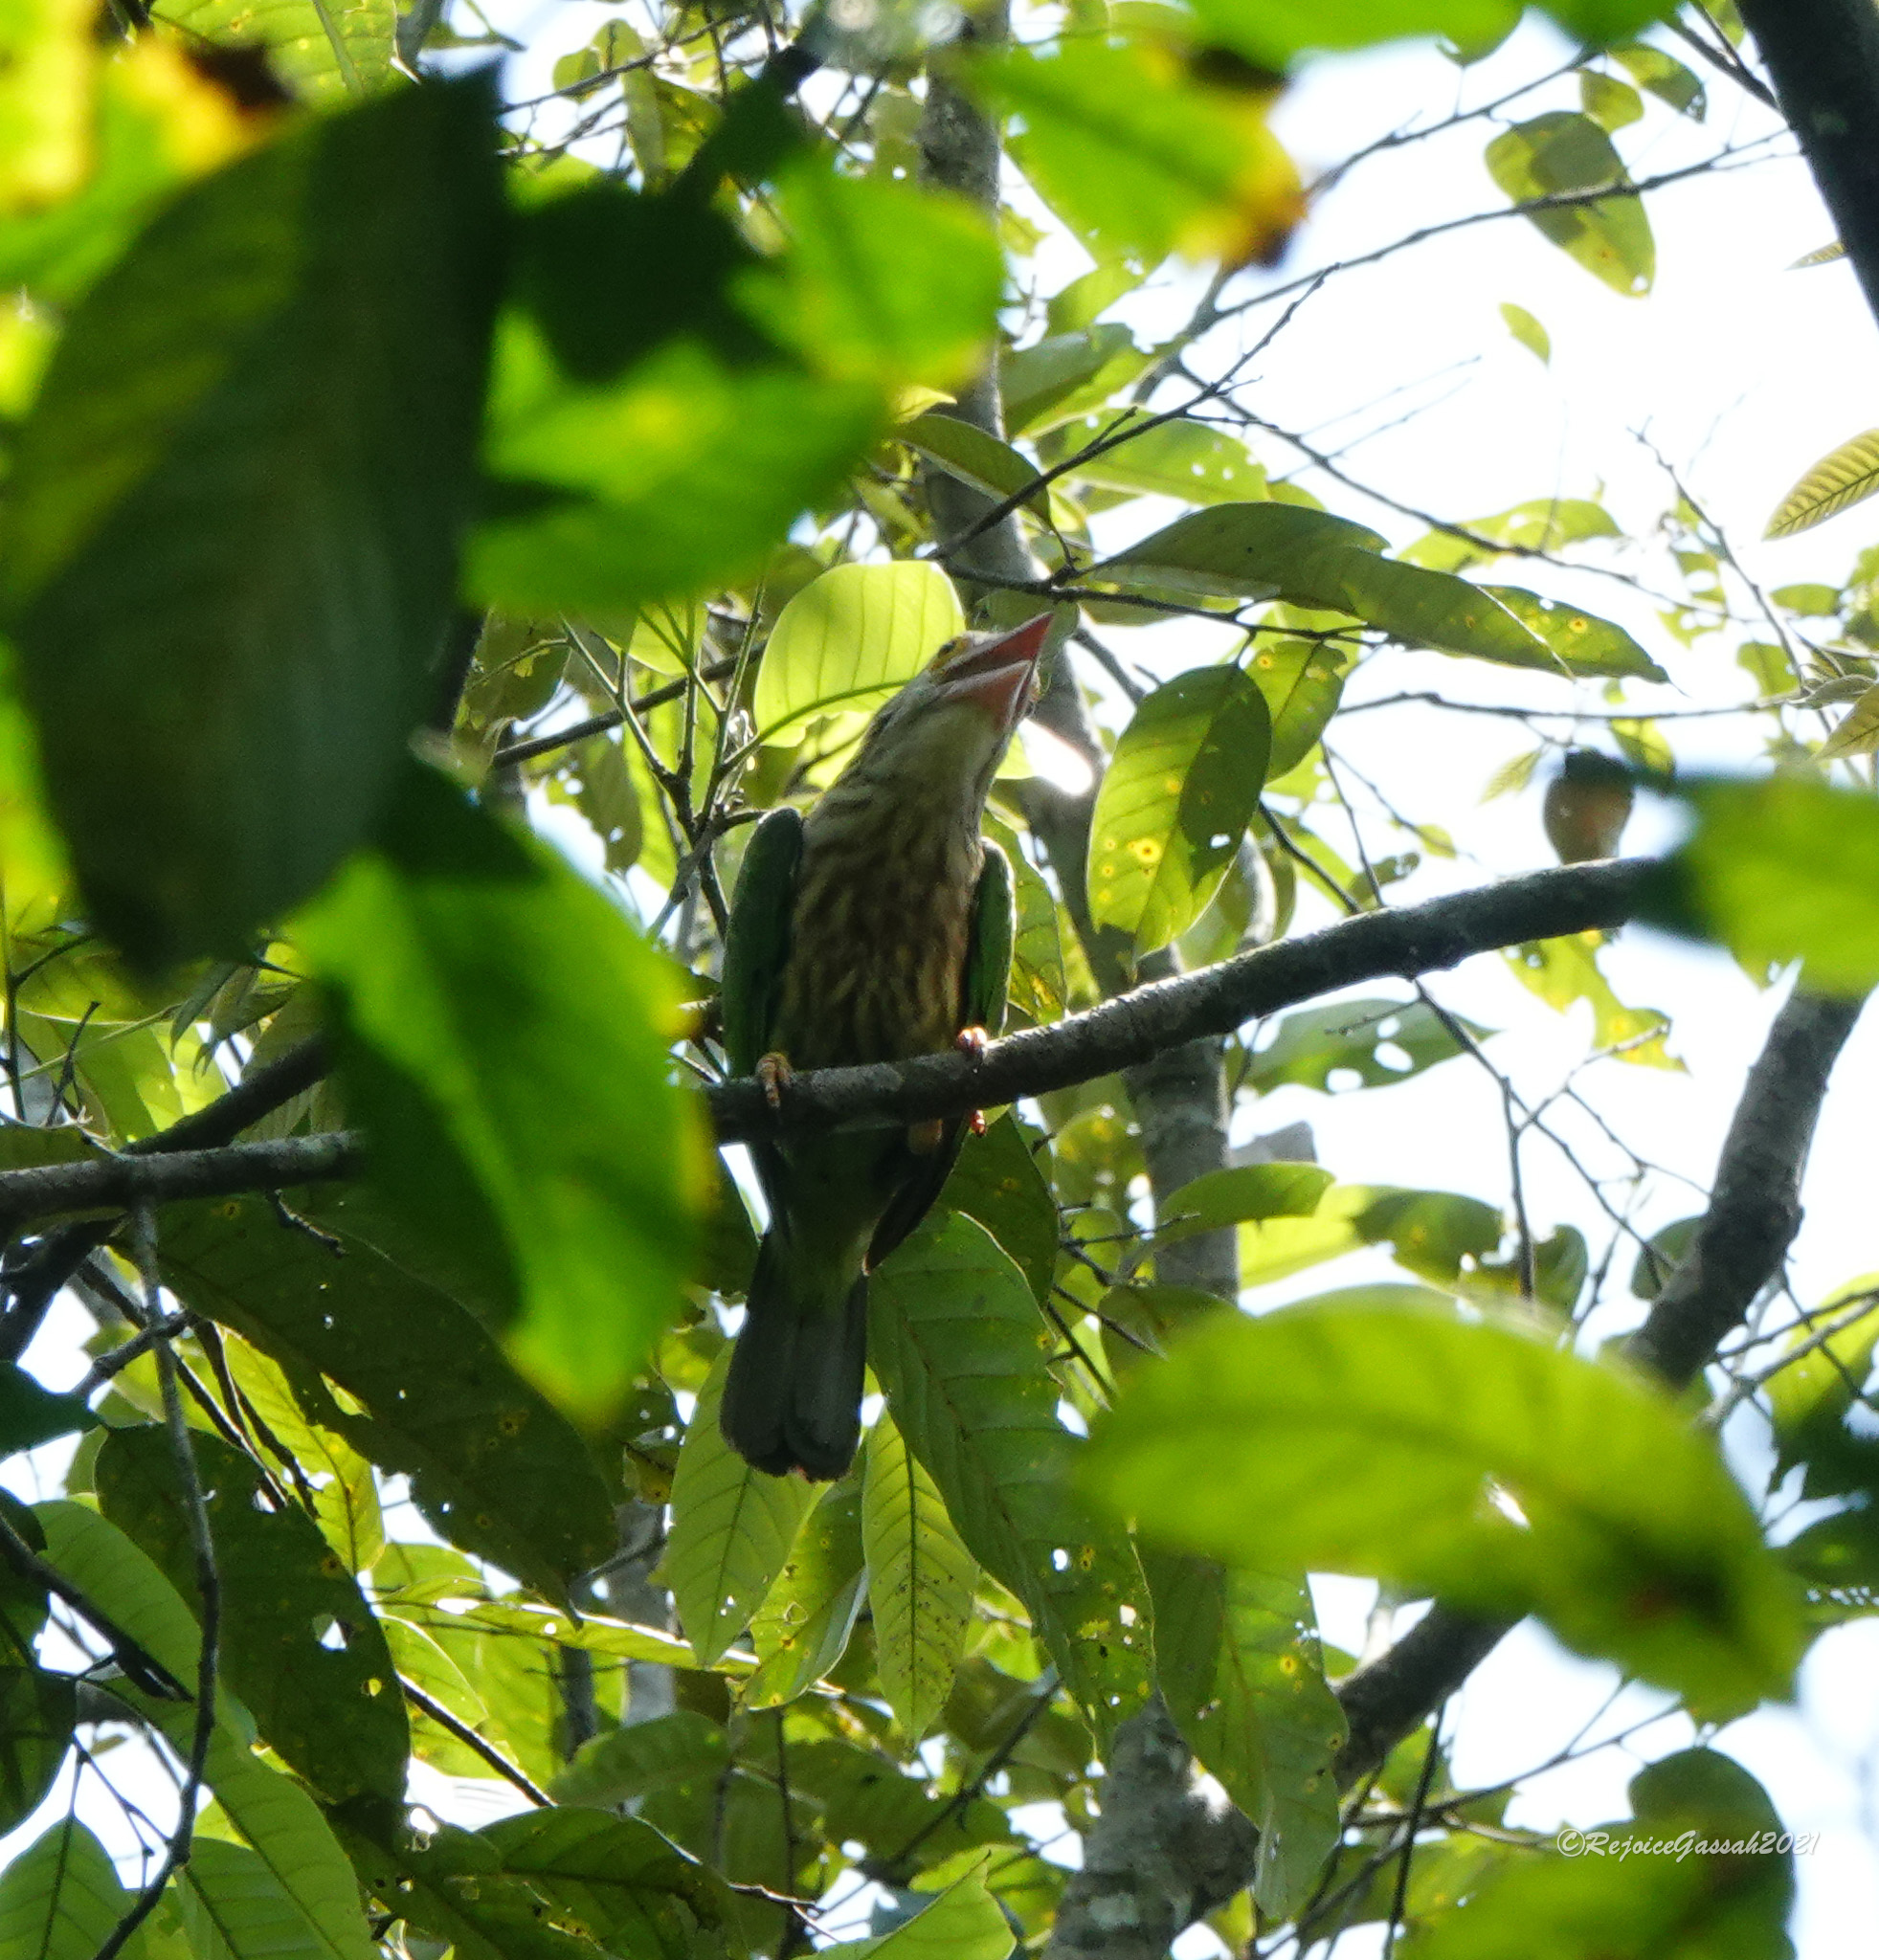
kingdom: Animalia
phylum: Chordata
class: Aves
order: Piciformes
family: Megalaimidae
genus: Psilopogon
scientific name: Psilopogon lineatus
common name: Lineated barbet
